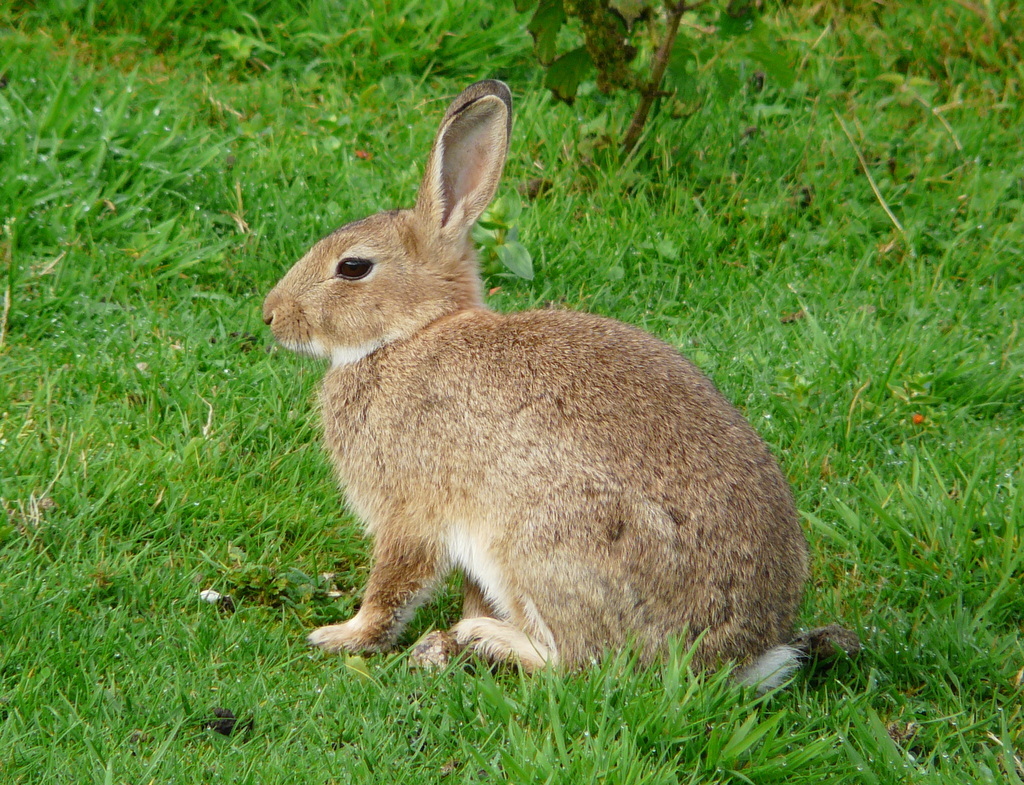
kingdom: Animalia
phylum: Chordata
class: Mammalia
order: Lagomorpha
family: Leporidae
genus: Oryctolagus
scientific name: Oryctolagus cuniculus
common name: European rabbit
